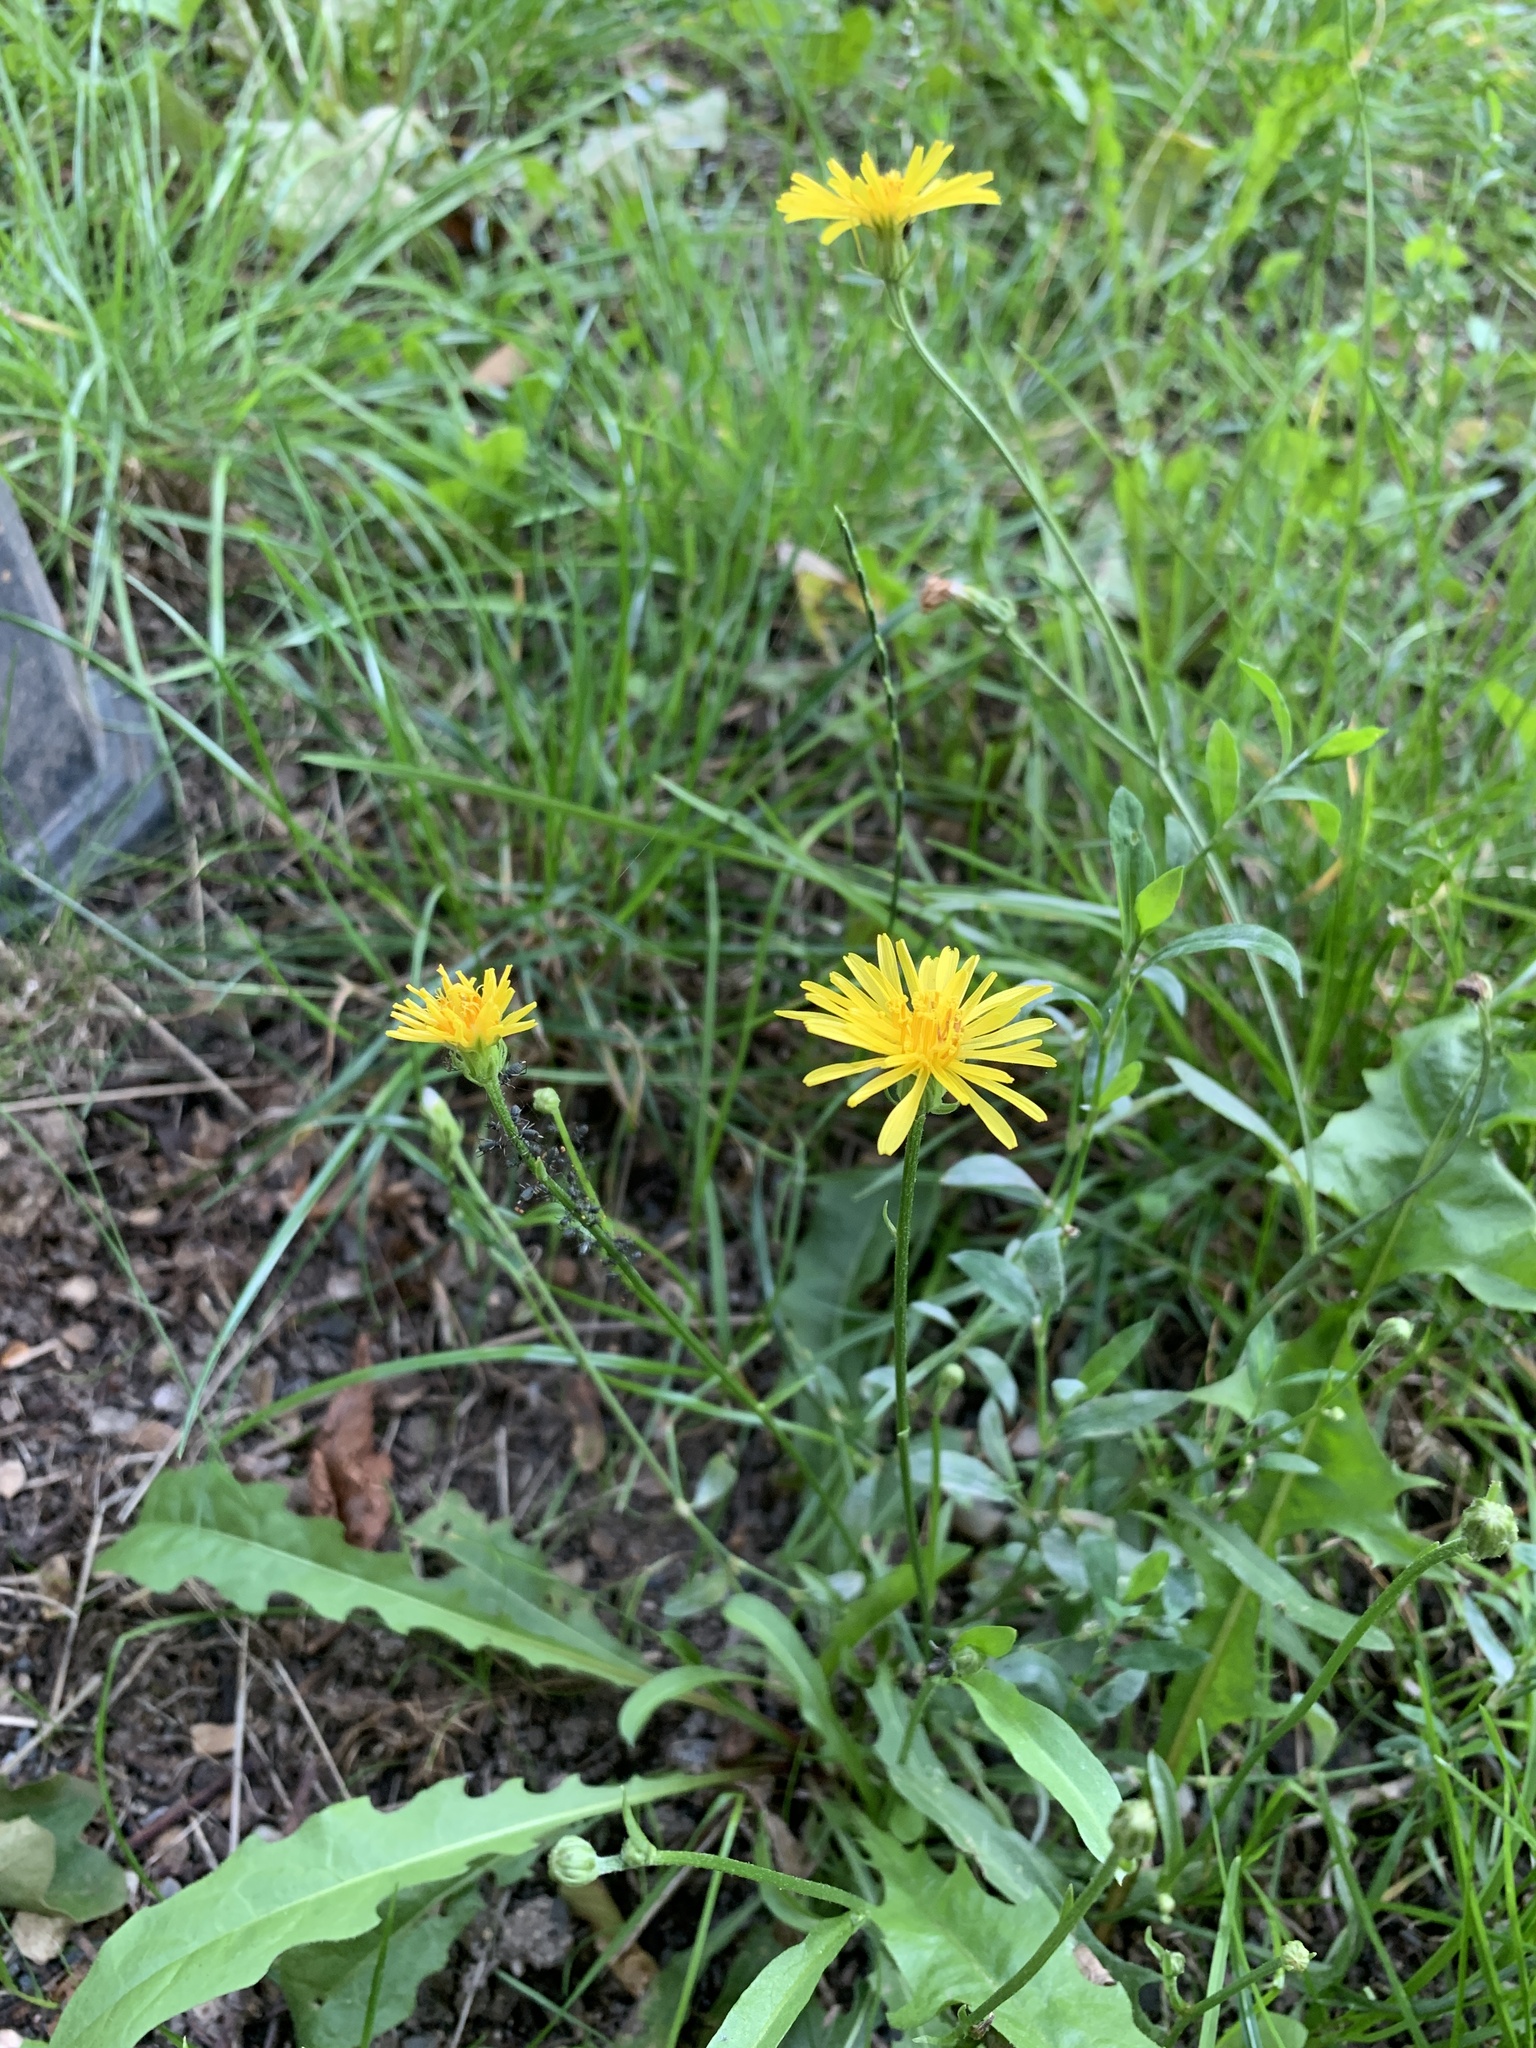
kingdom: Plantae
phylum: Tracheophyta
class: Magnoliopsida
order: Asterales
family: Asteraceae
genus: Crepis
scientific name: Crepis biennis
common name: Rough hawk's-beard
